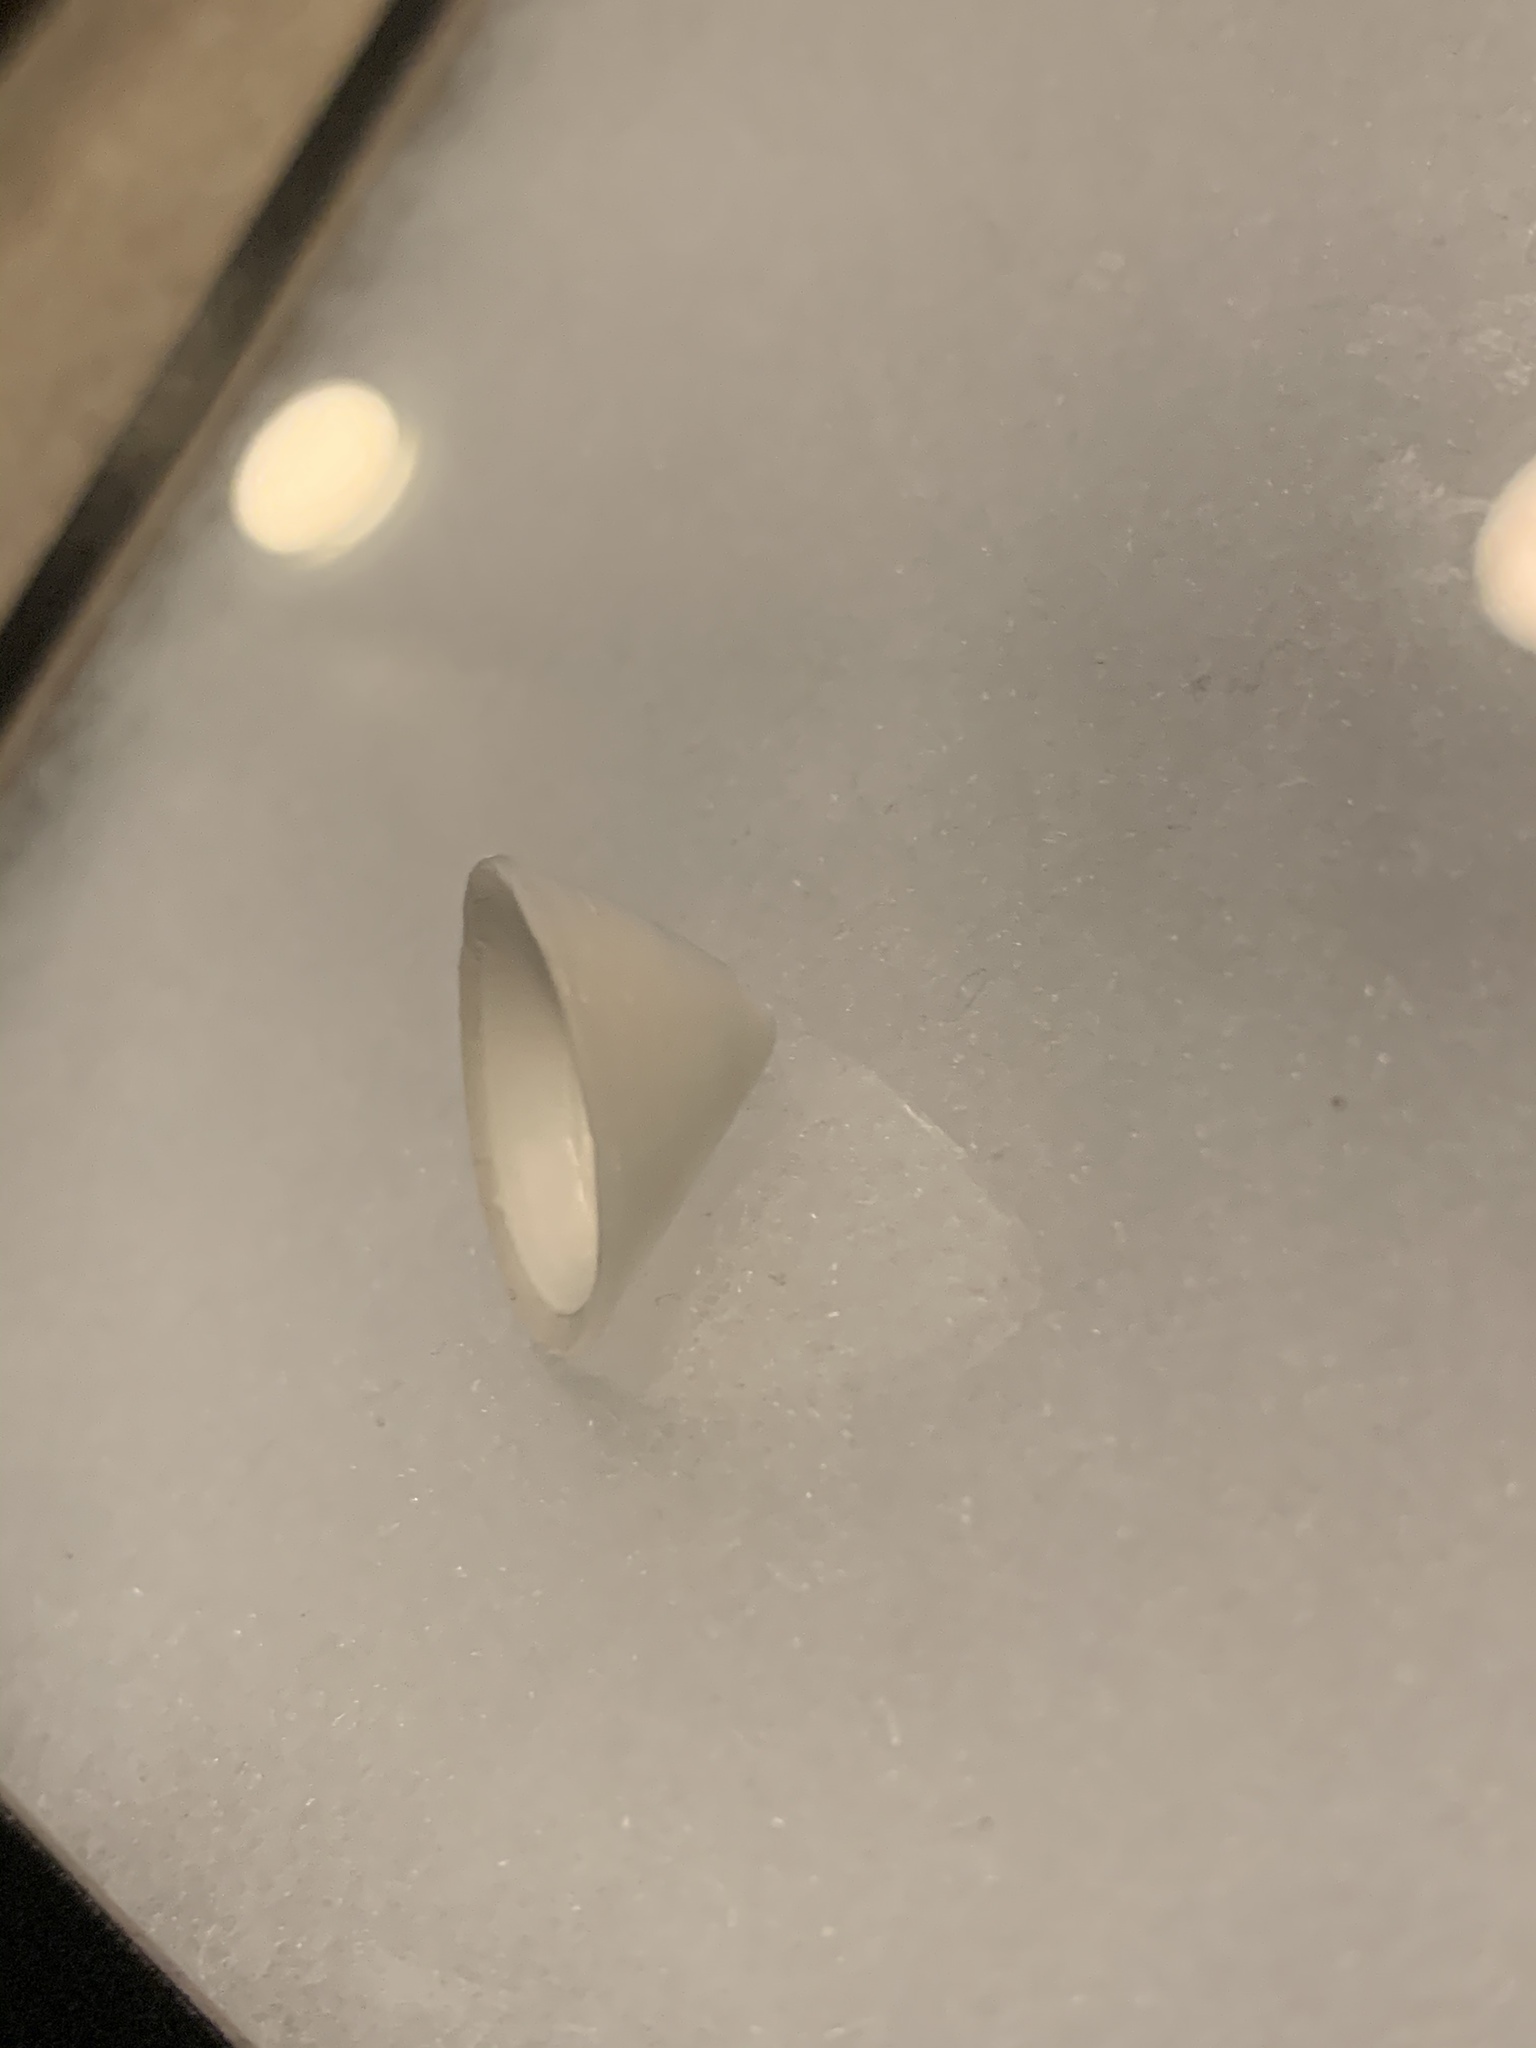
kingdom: Animalia
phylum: Mollusca
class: Gastropoda
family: Acmaeidae
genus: Acmaea
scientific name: Acmaea mitra
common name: Pacific white cap limpet
